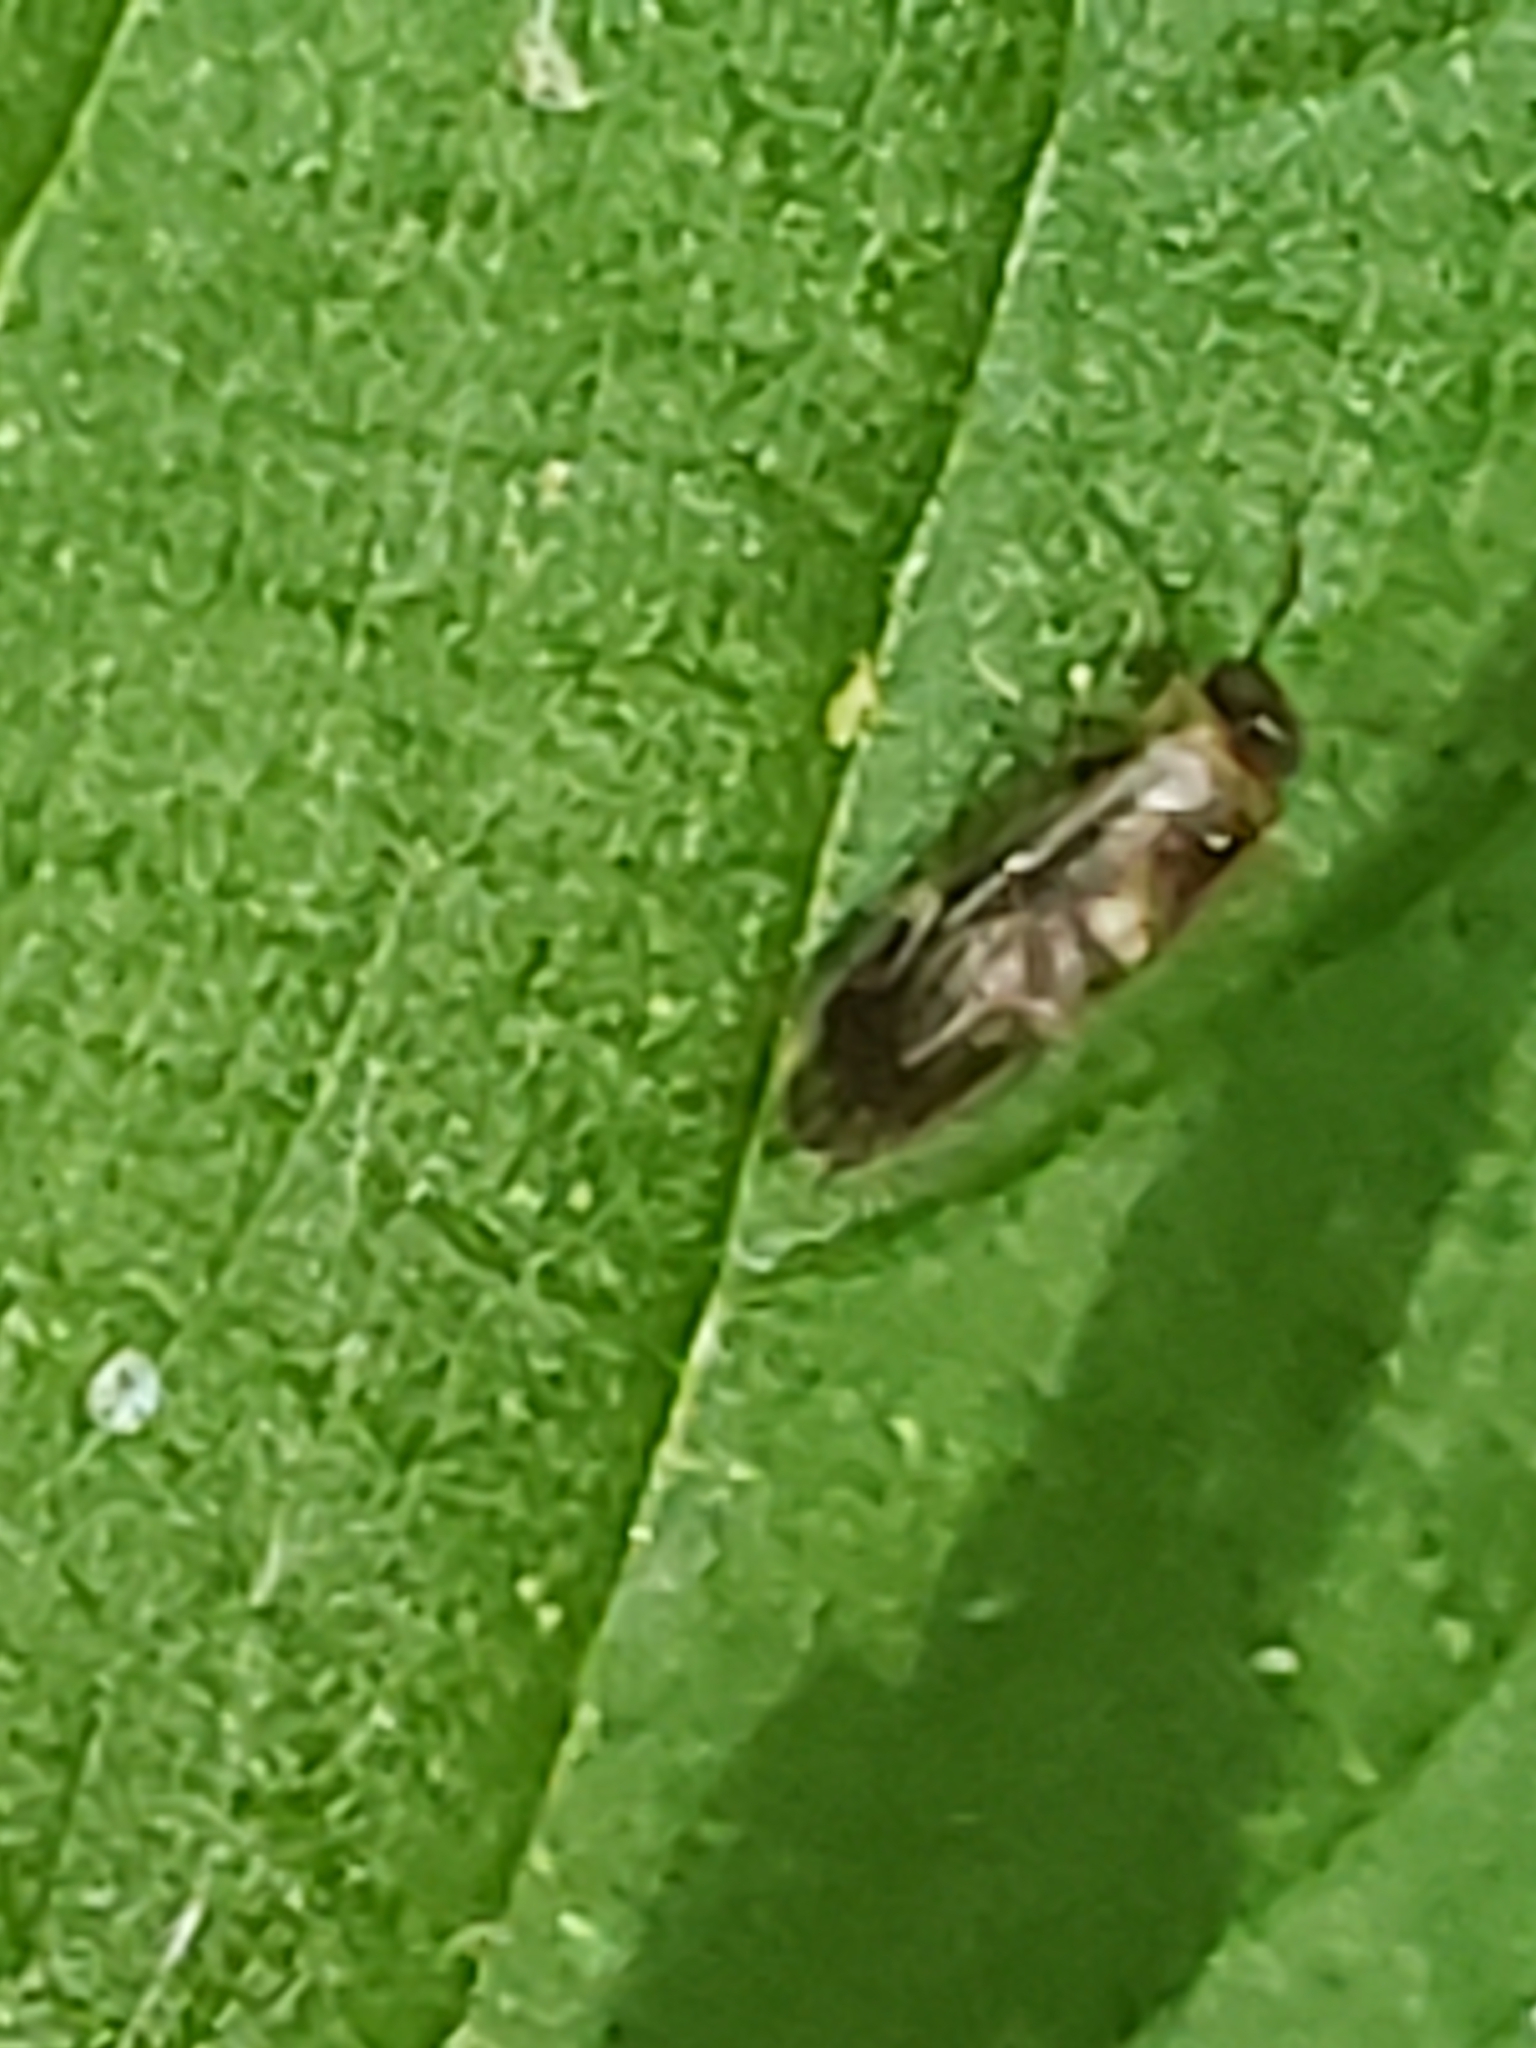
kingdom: Animalia
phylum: Arthropoda
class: Insecta
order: Psocodea
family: Amphipsocidae
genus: Polypsocus
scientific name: Polypsocus corruptus
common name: Corrupt barklouse
